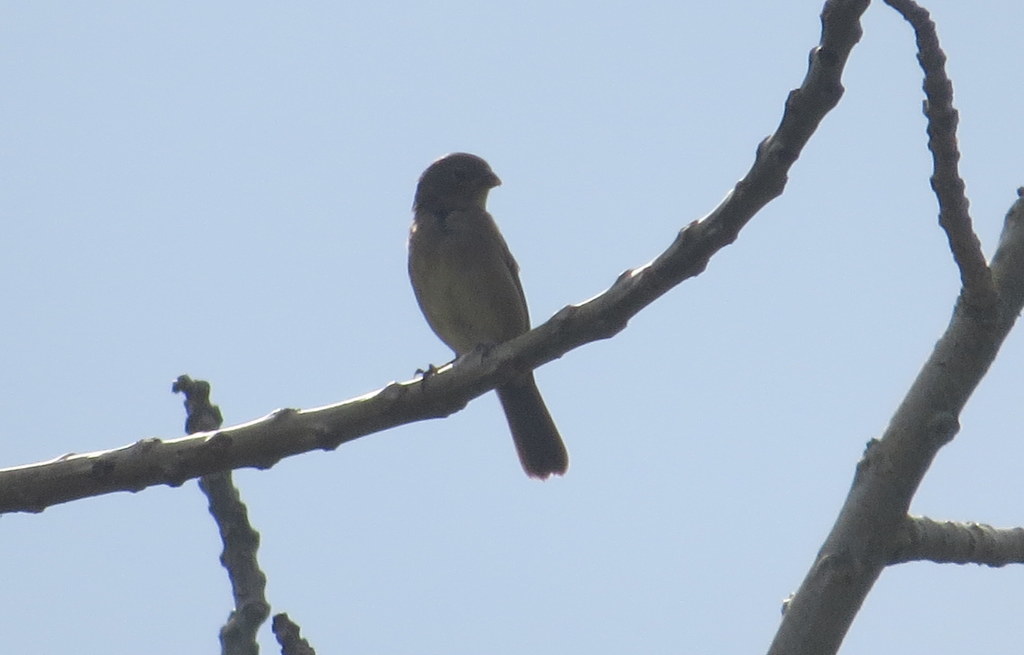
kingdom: Animalia
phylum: Chordata
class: Aves
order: Passeriformes
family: Thraupidae
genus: Sicalis
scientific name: Sicalis luteola
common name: Grassland yellow-finch
